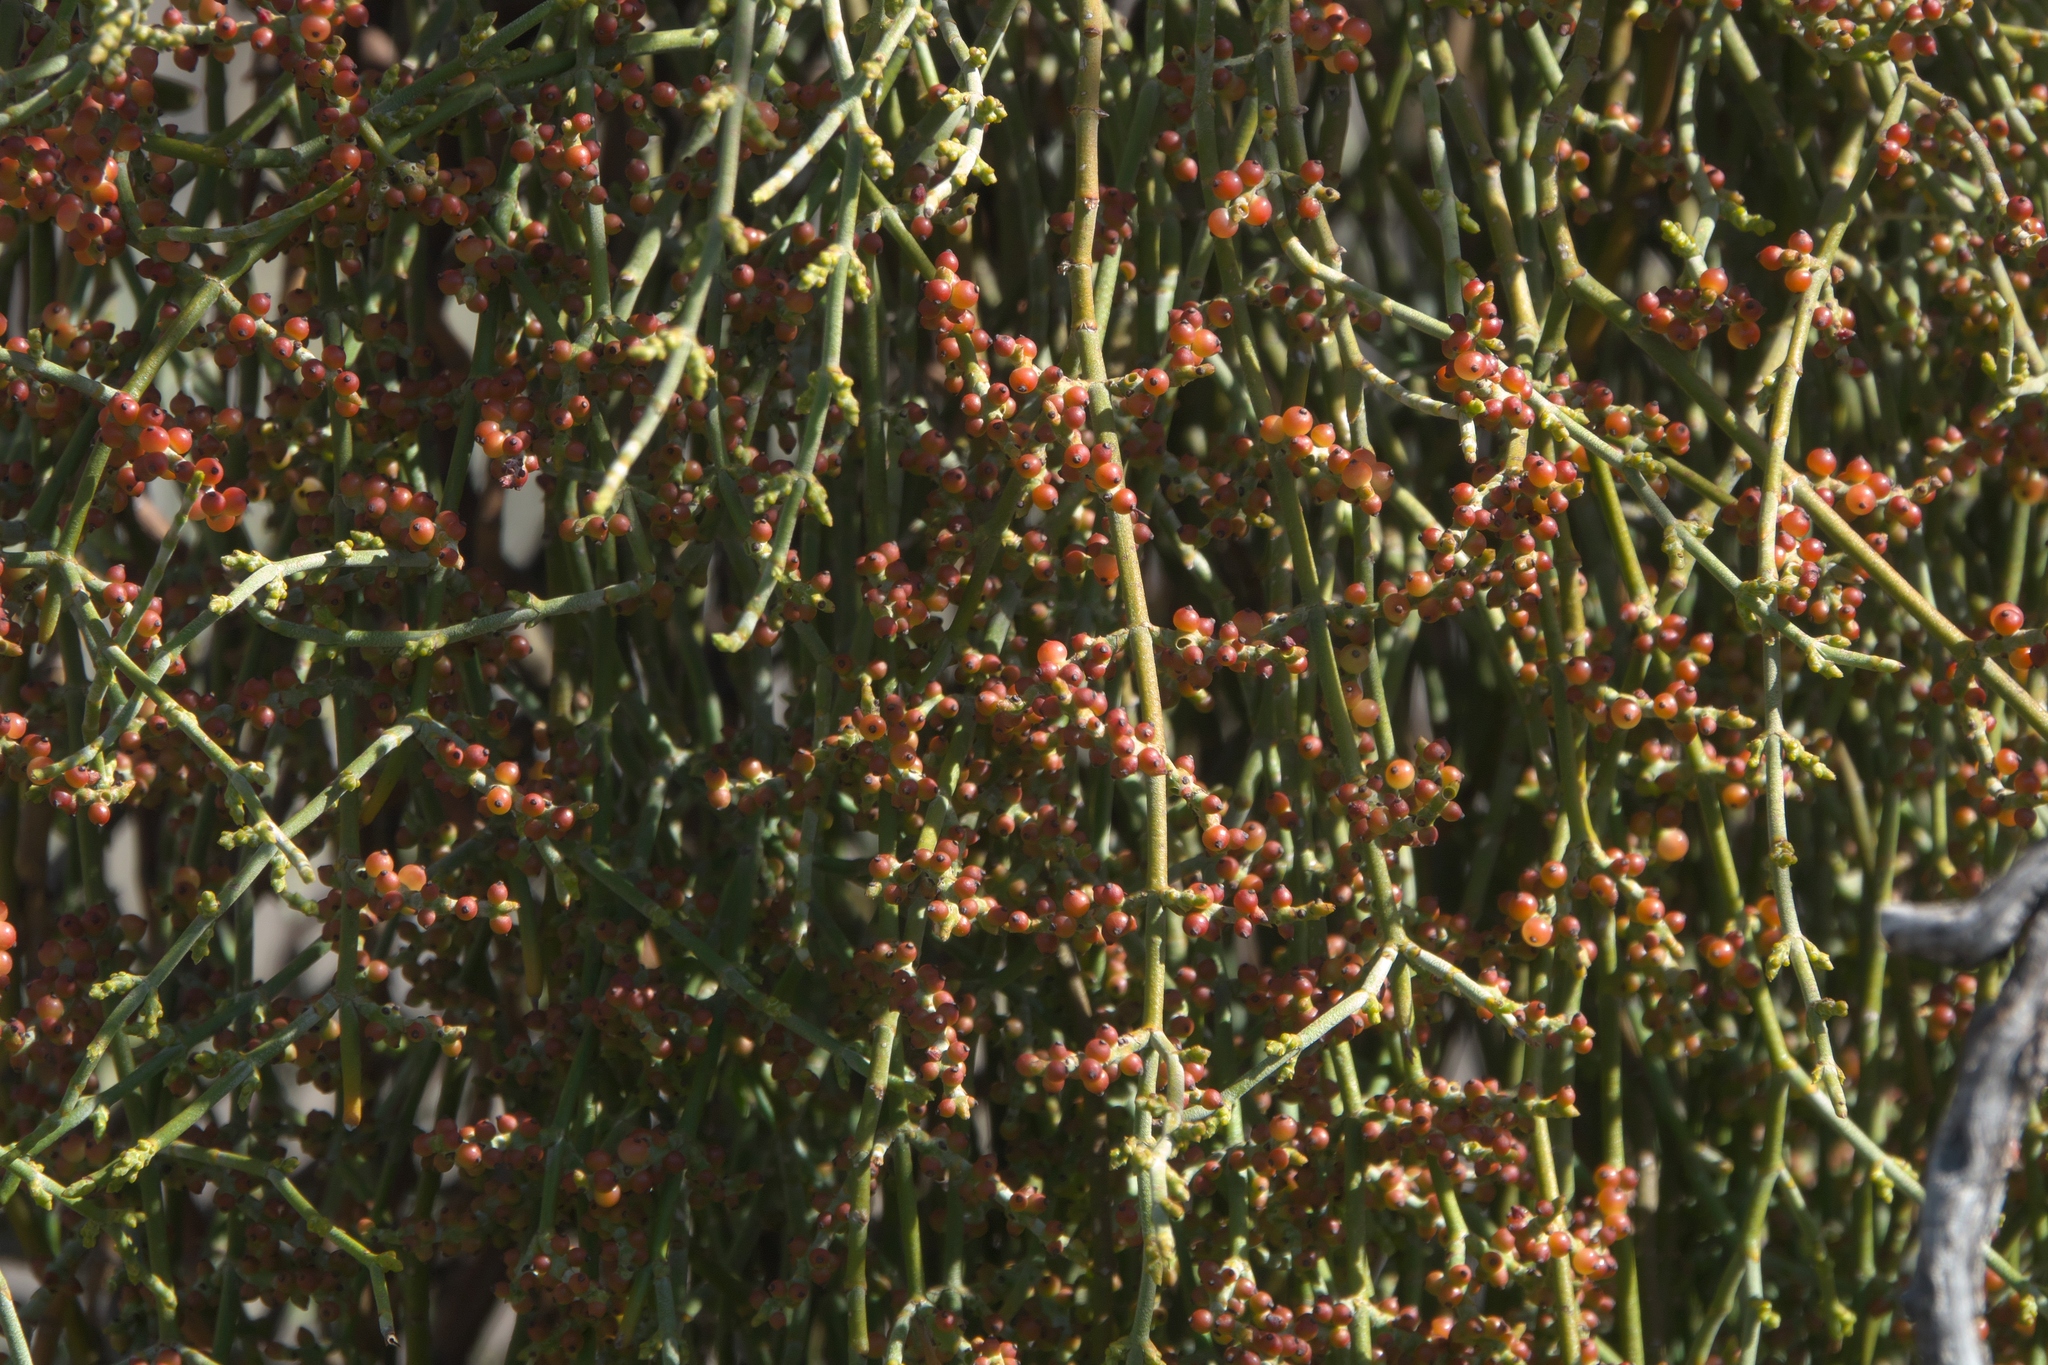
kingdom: Plantae
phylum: Tracheophyta
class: Magnoliopsida
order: Santalales
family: Viscaceae
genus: Phoradendron
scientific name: Phoradendron californicum
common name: Acacia mistletoe
